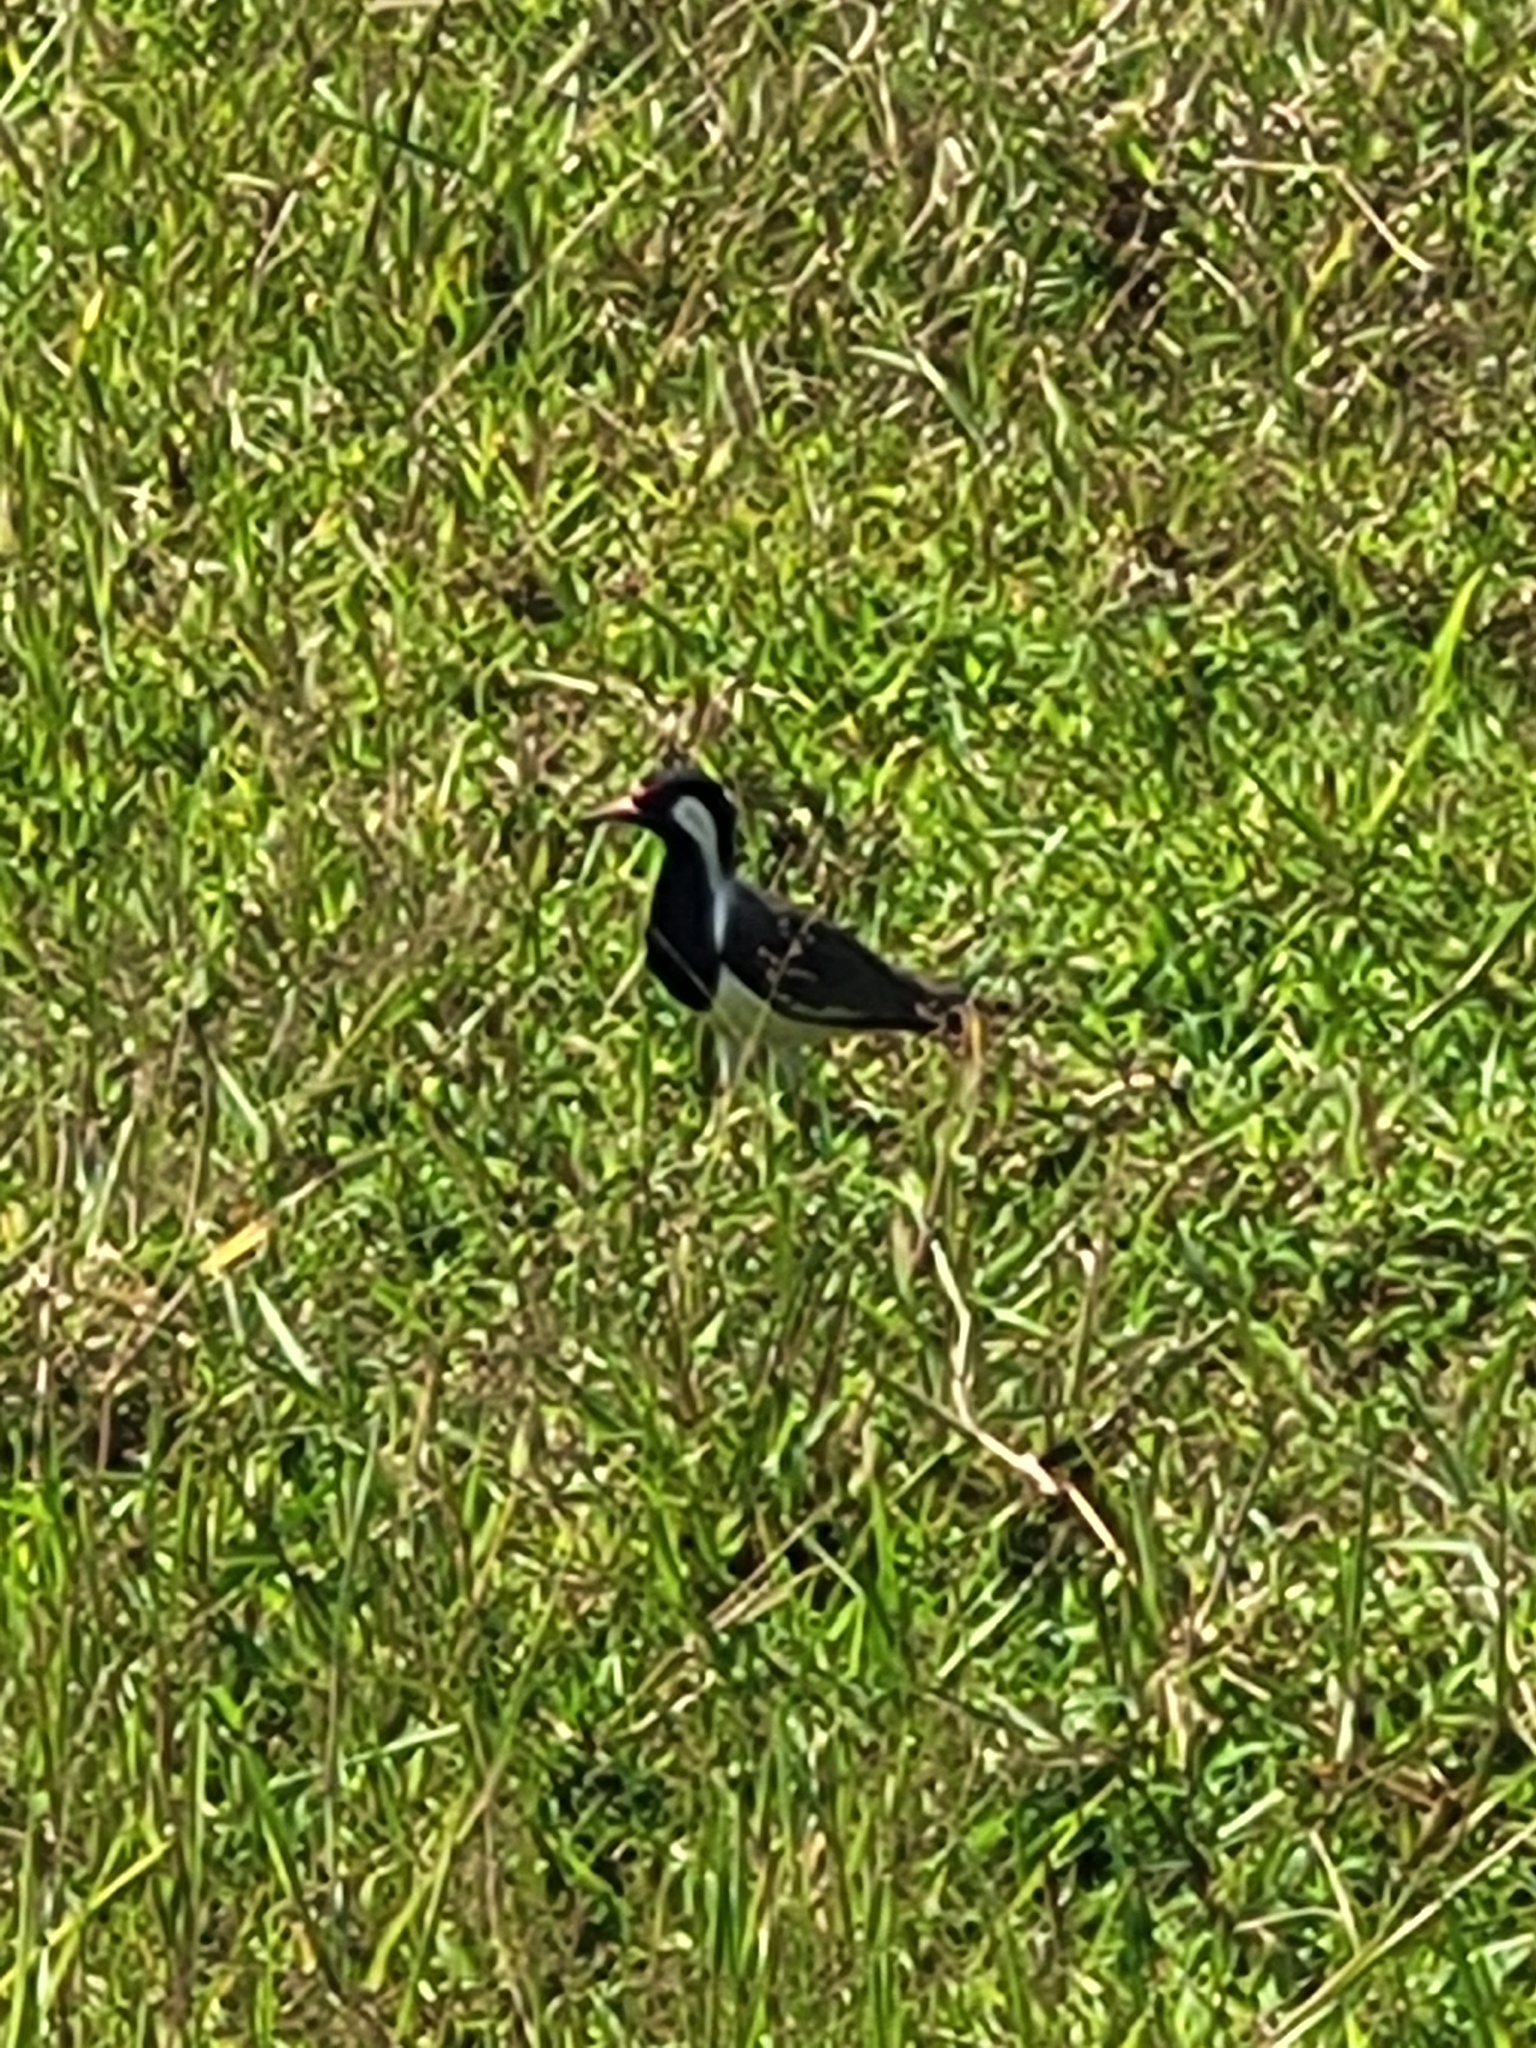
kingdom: Animalia
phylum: Chordata
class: Aves
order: Charadriiformes
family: Charadriidae
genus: Vanellus
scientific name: Vanellus indicus
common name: Red-wattled lapwing
